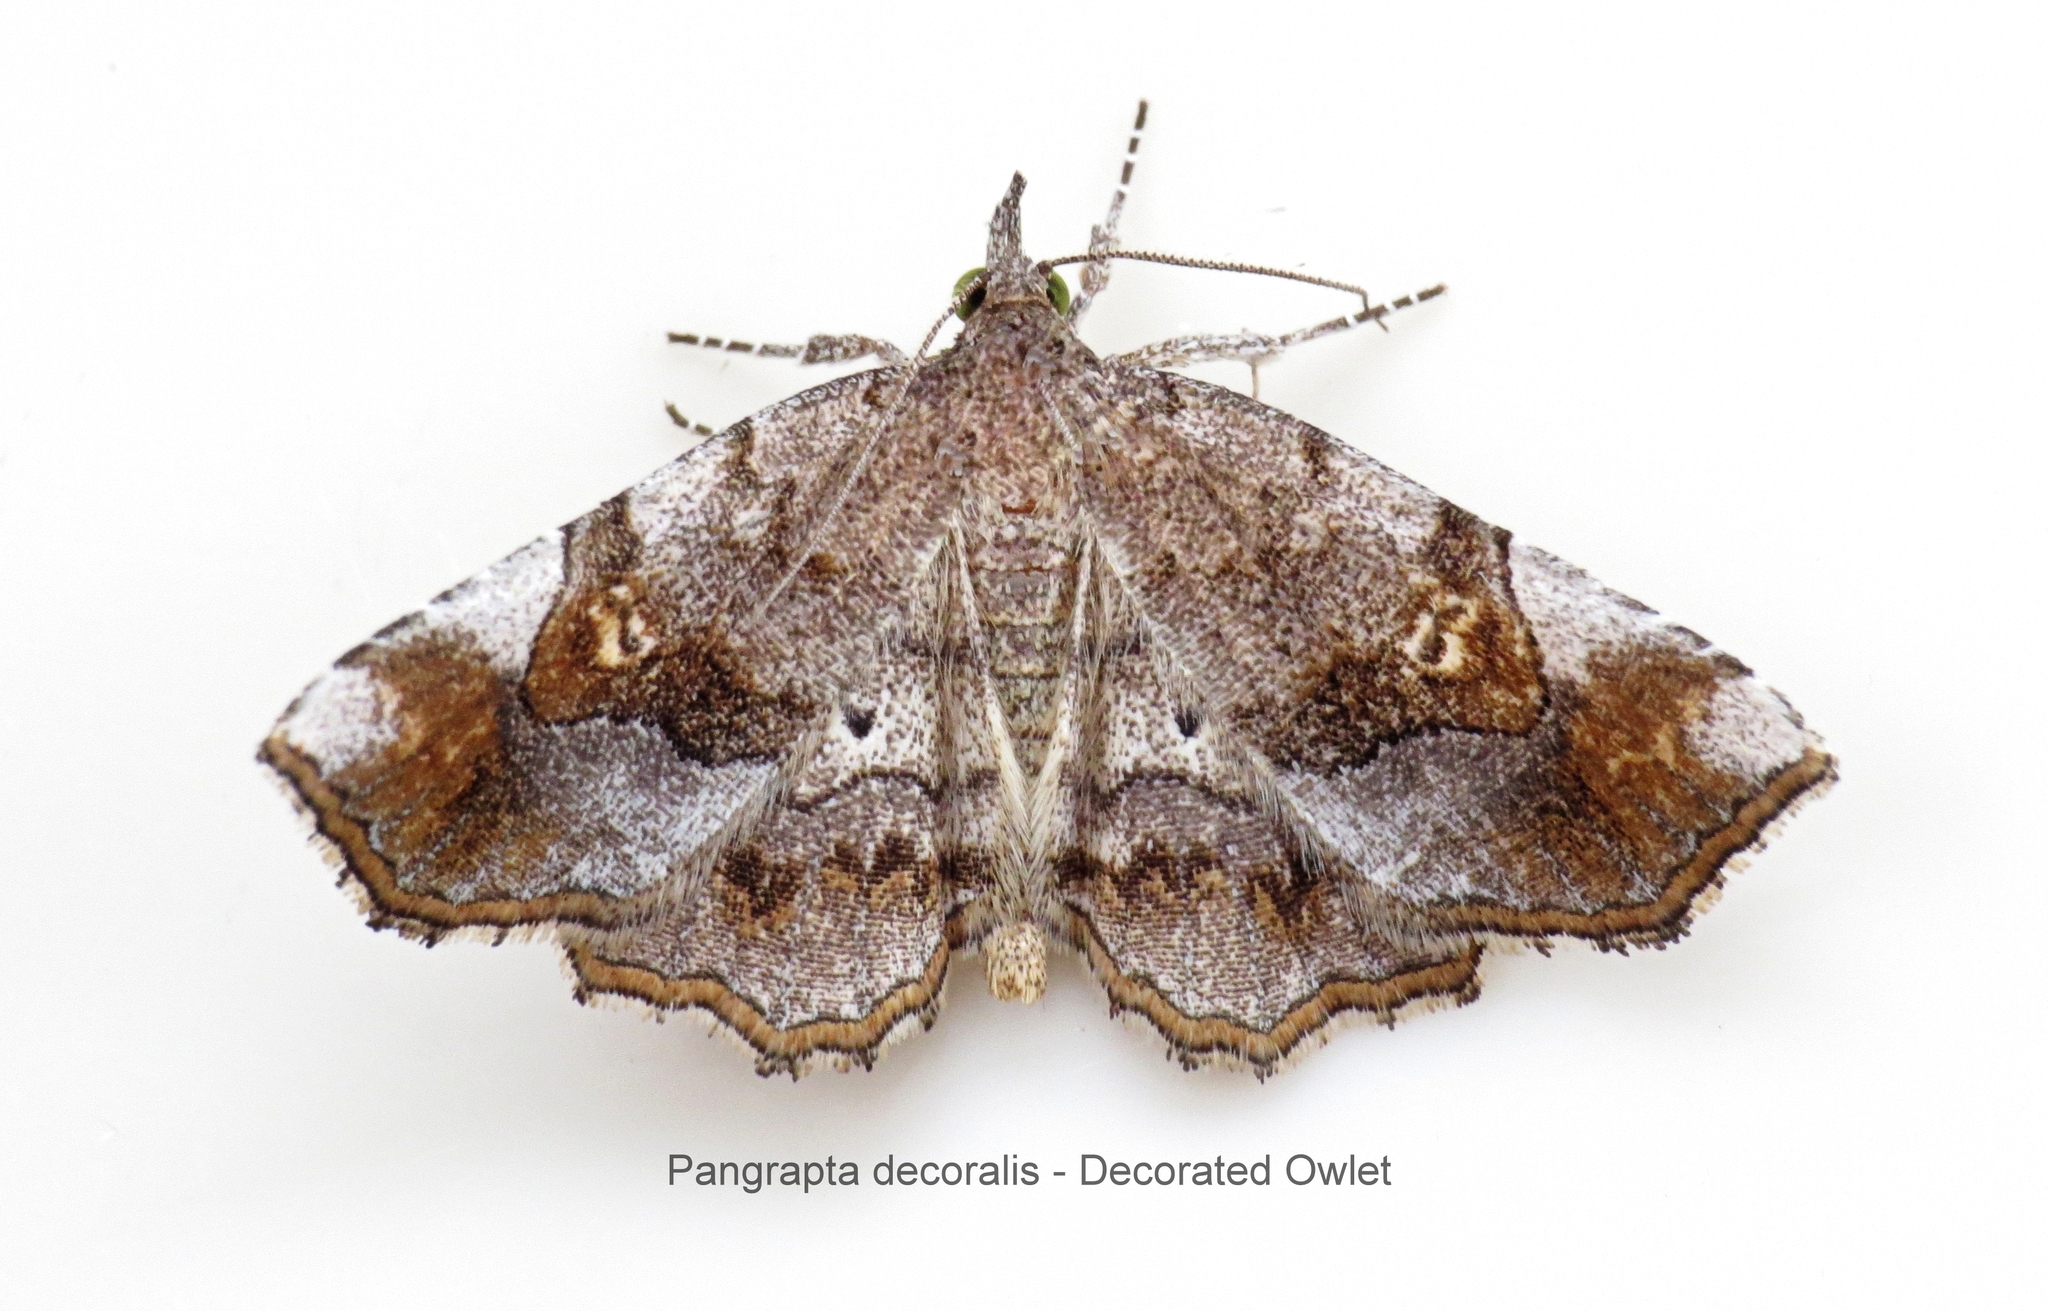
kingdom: Animalia
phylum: Arthropoda
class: Insecta
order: Lepidoptera
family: Erebidae
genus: Pangrapta
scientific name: Pangrapta decoralis
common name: Decorated owlet
